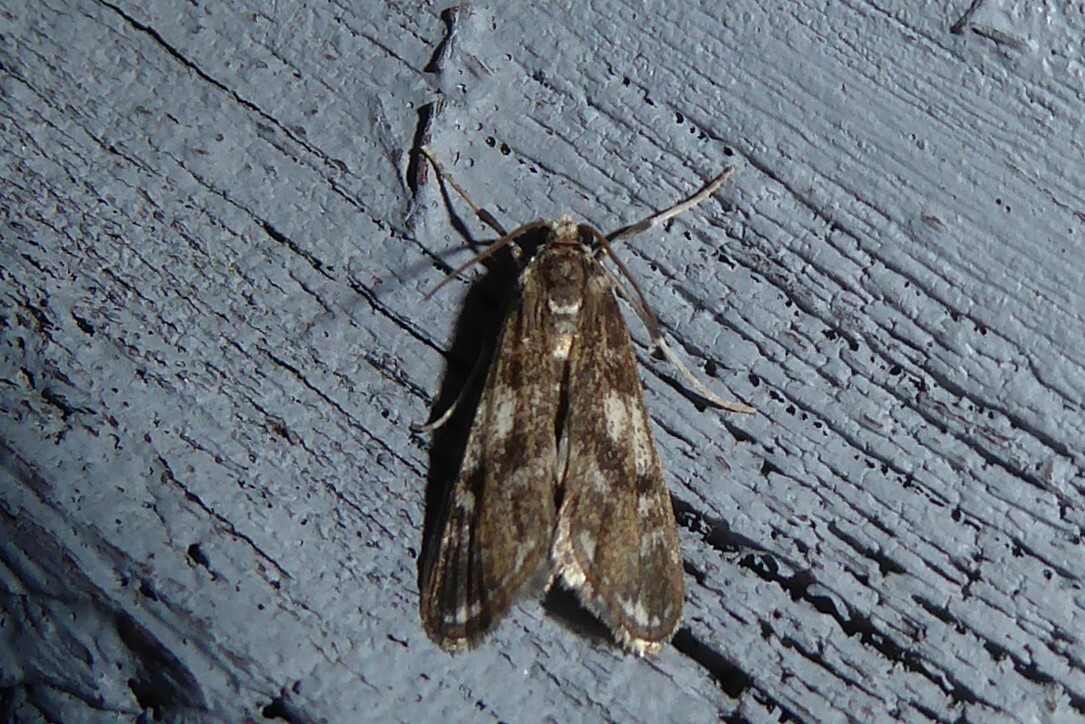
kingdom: Animalia
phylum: Arthropoda
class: Insecta
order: Lepidoptera
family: Crambidae
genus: Hygraula
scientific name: Hygraula nitens
